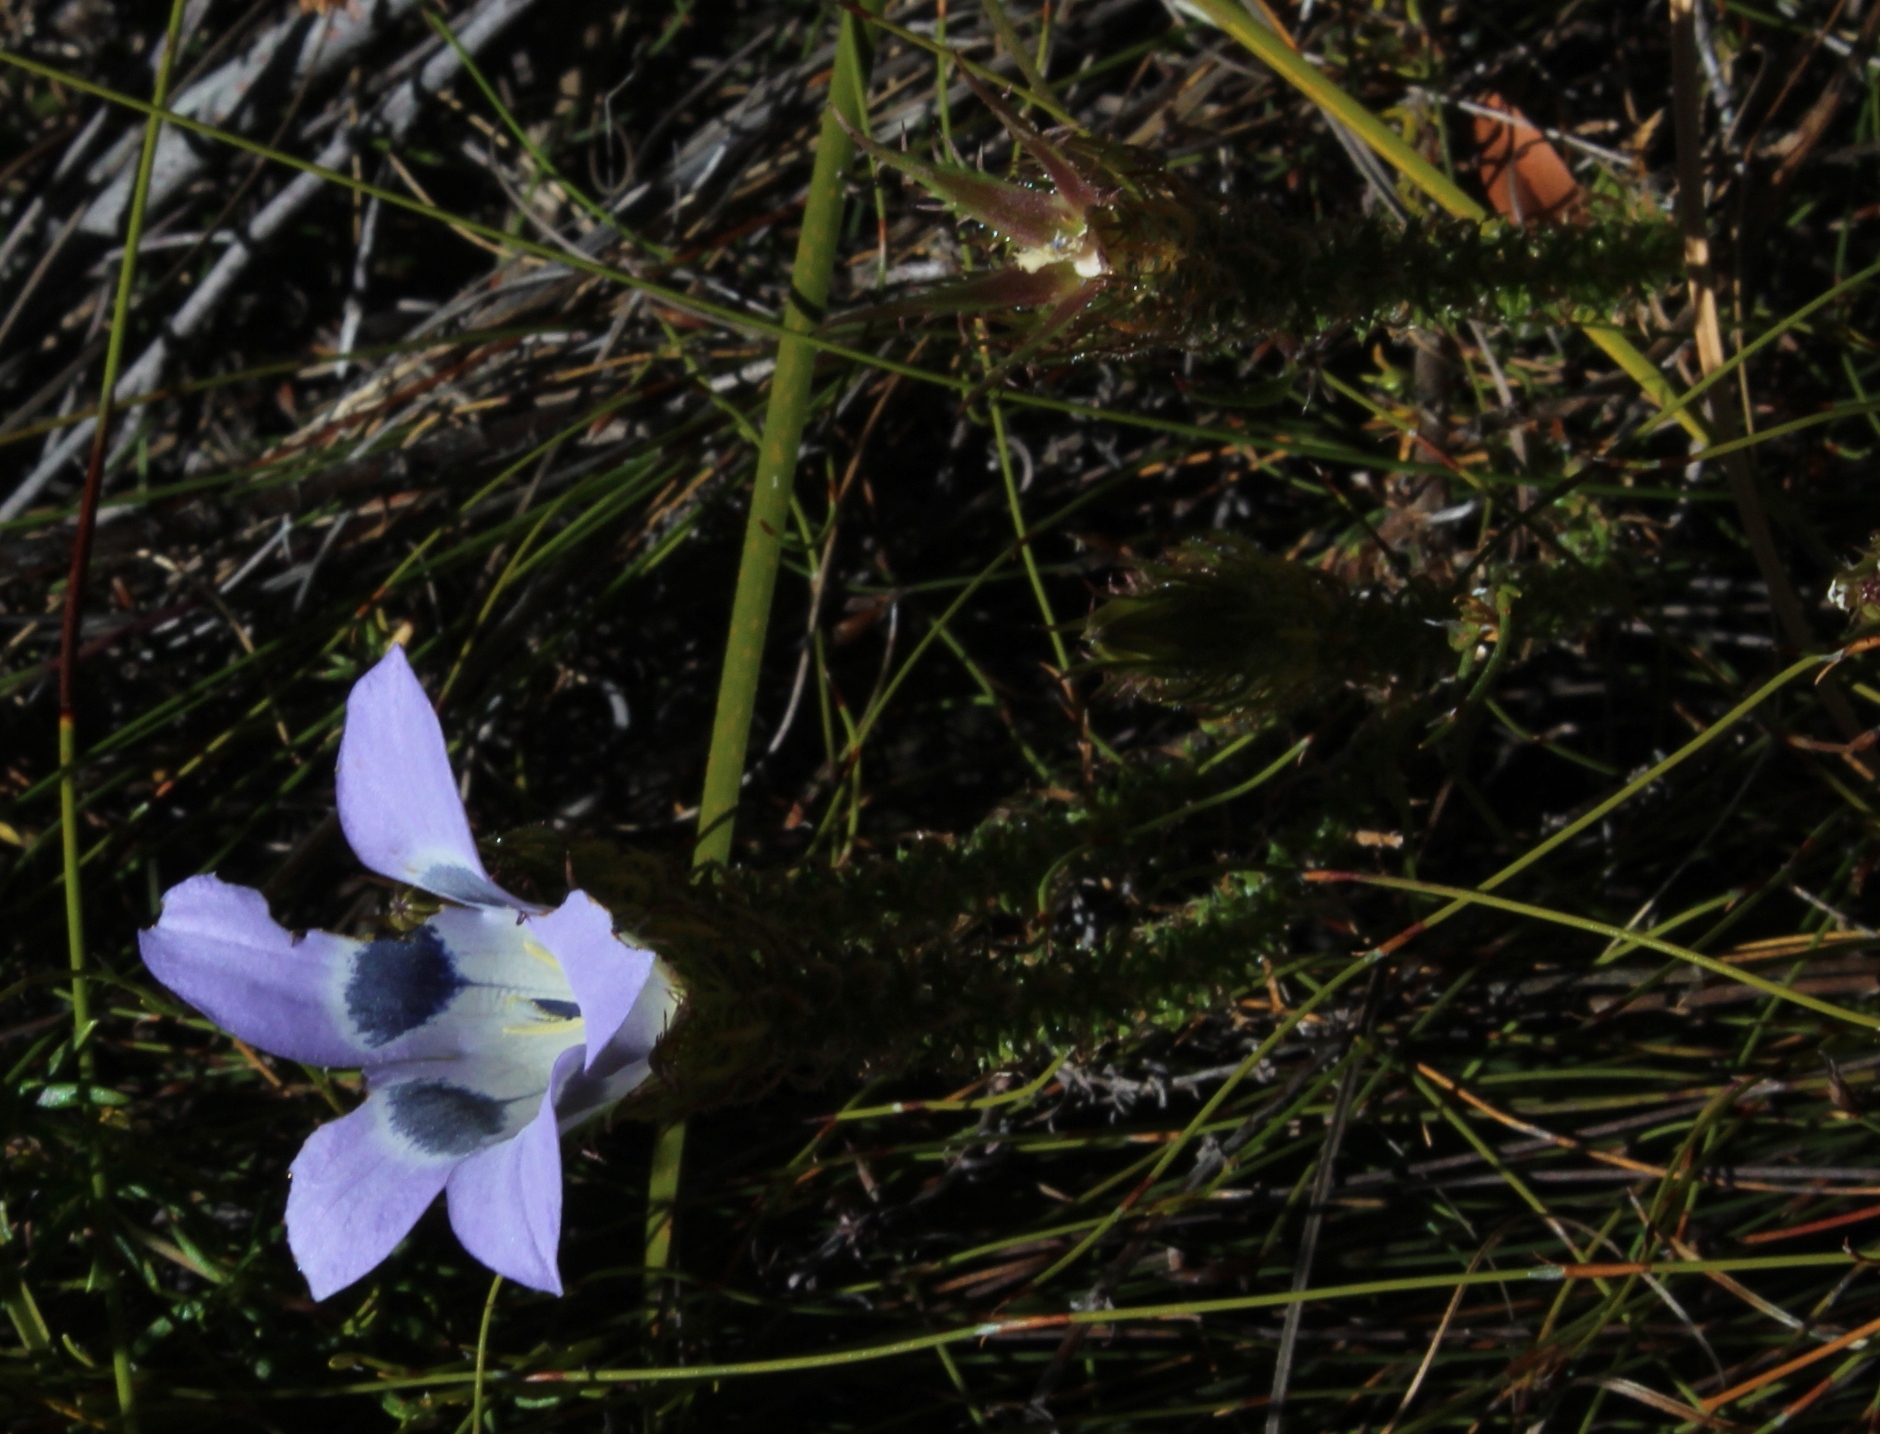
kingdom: Plantae
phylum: Tracheophyta
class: Magnoliopsida
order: Asterales
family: Campanulaceae
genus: Roella
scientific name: Roella incurva
